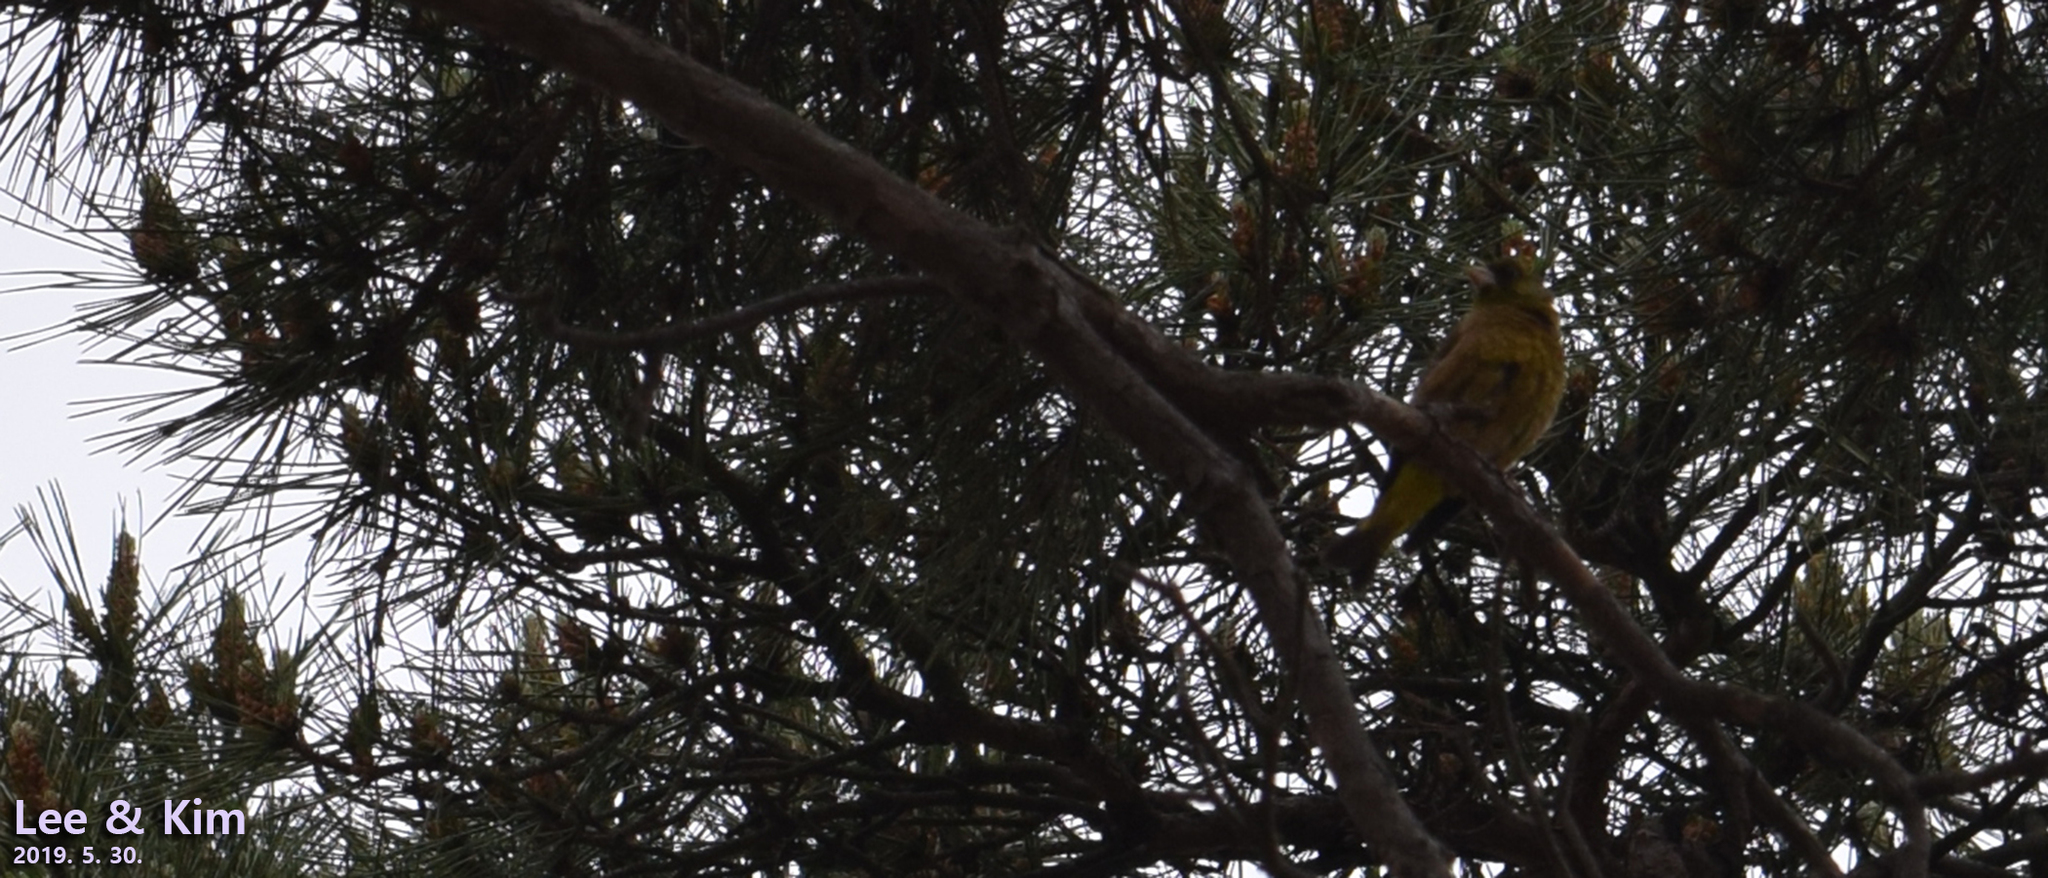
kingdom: Plantae
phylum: Tracheophyta
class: Liliopsida
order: Poales
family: Poaceae
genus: Chloris
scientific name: Chloris sinica
